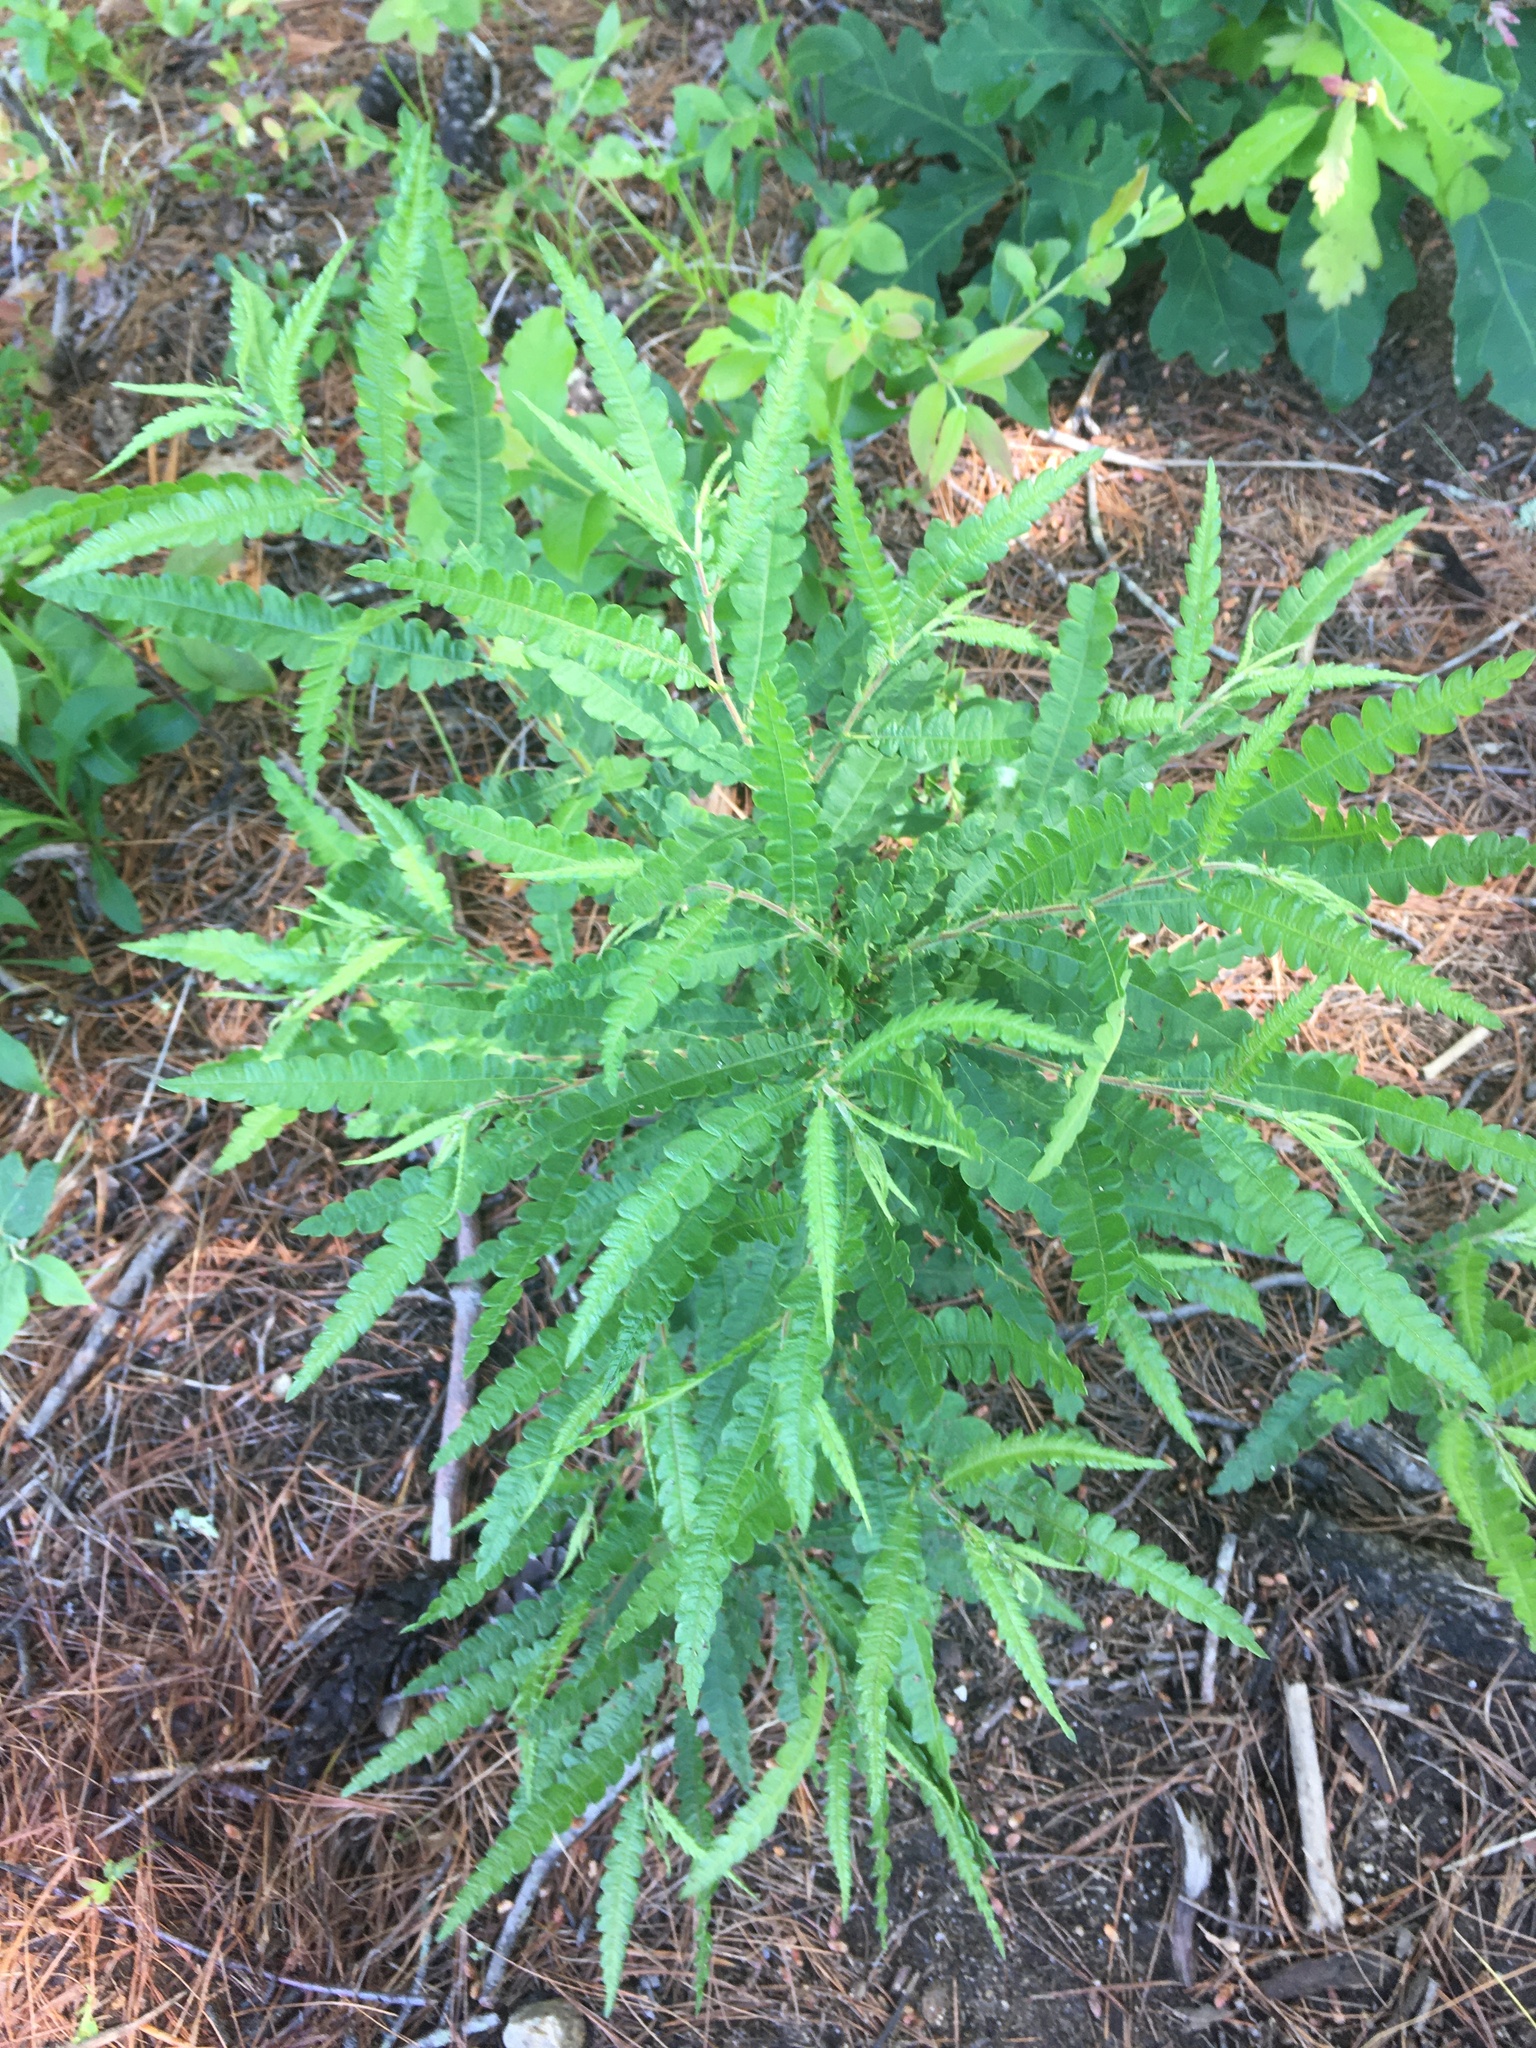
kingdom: Plantae
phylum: Tracheophyta
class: Magnoliopsida
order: Fagales
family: Myricaceae
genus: Comptonia
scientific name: Comptonia peregrina
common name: Sweet-fern
